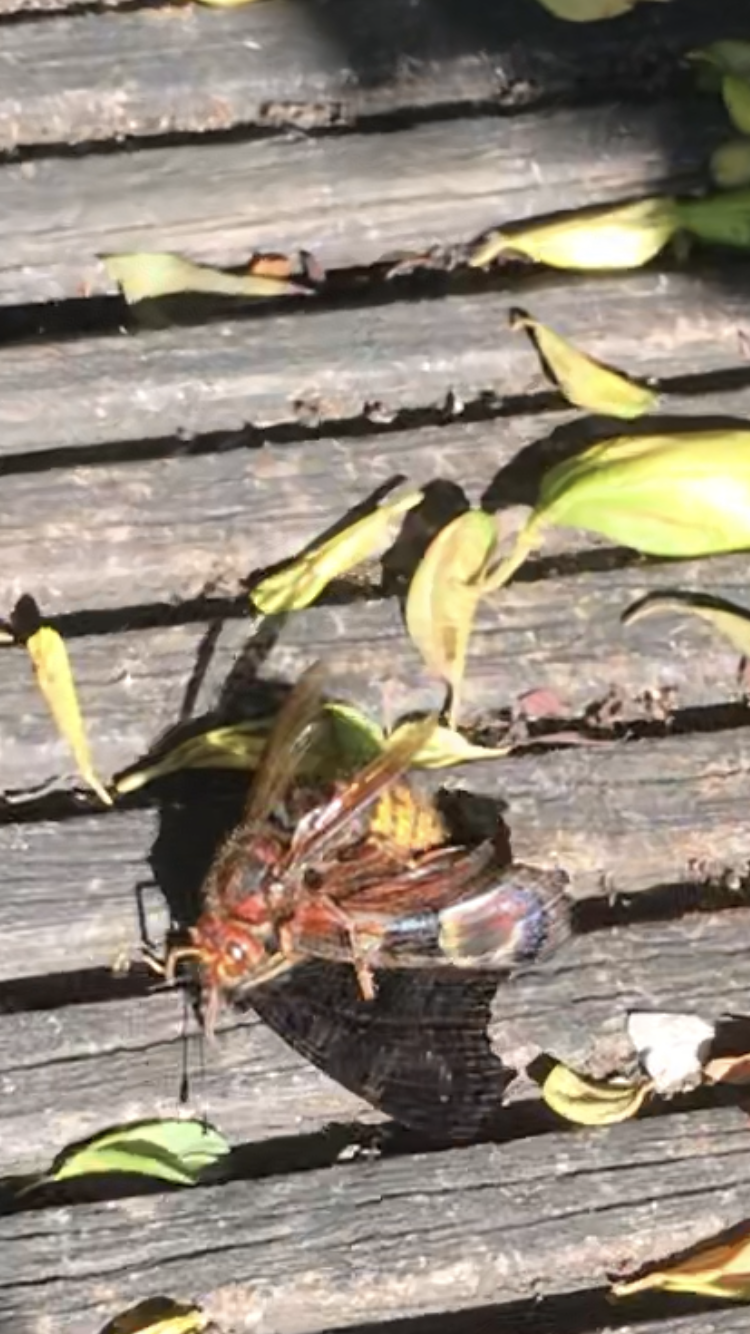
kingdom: Animalia
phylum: Arthropoda
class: Insecta
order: Hymenoptera
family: Vespidae
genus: Vespa
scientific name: Vespa crabro
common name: Hornet
